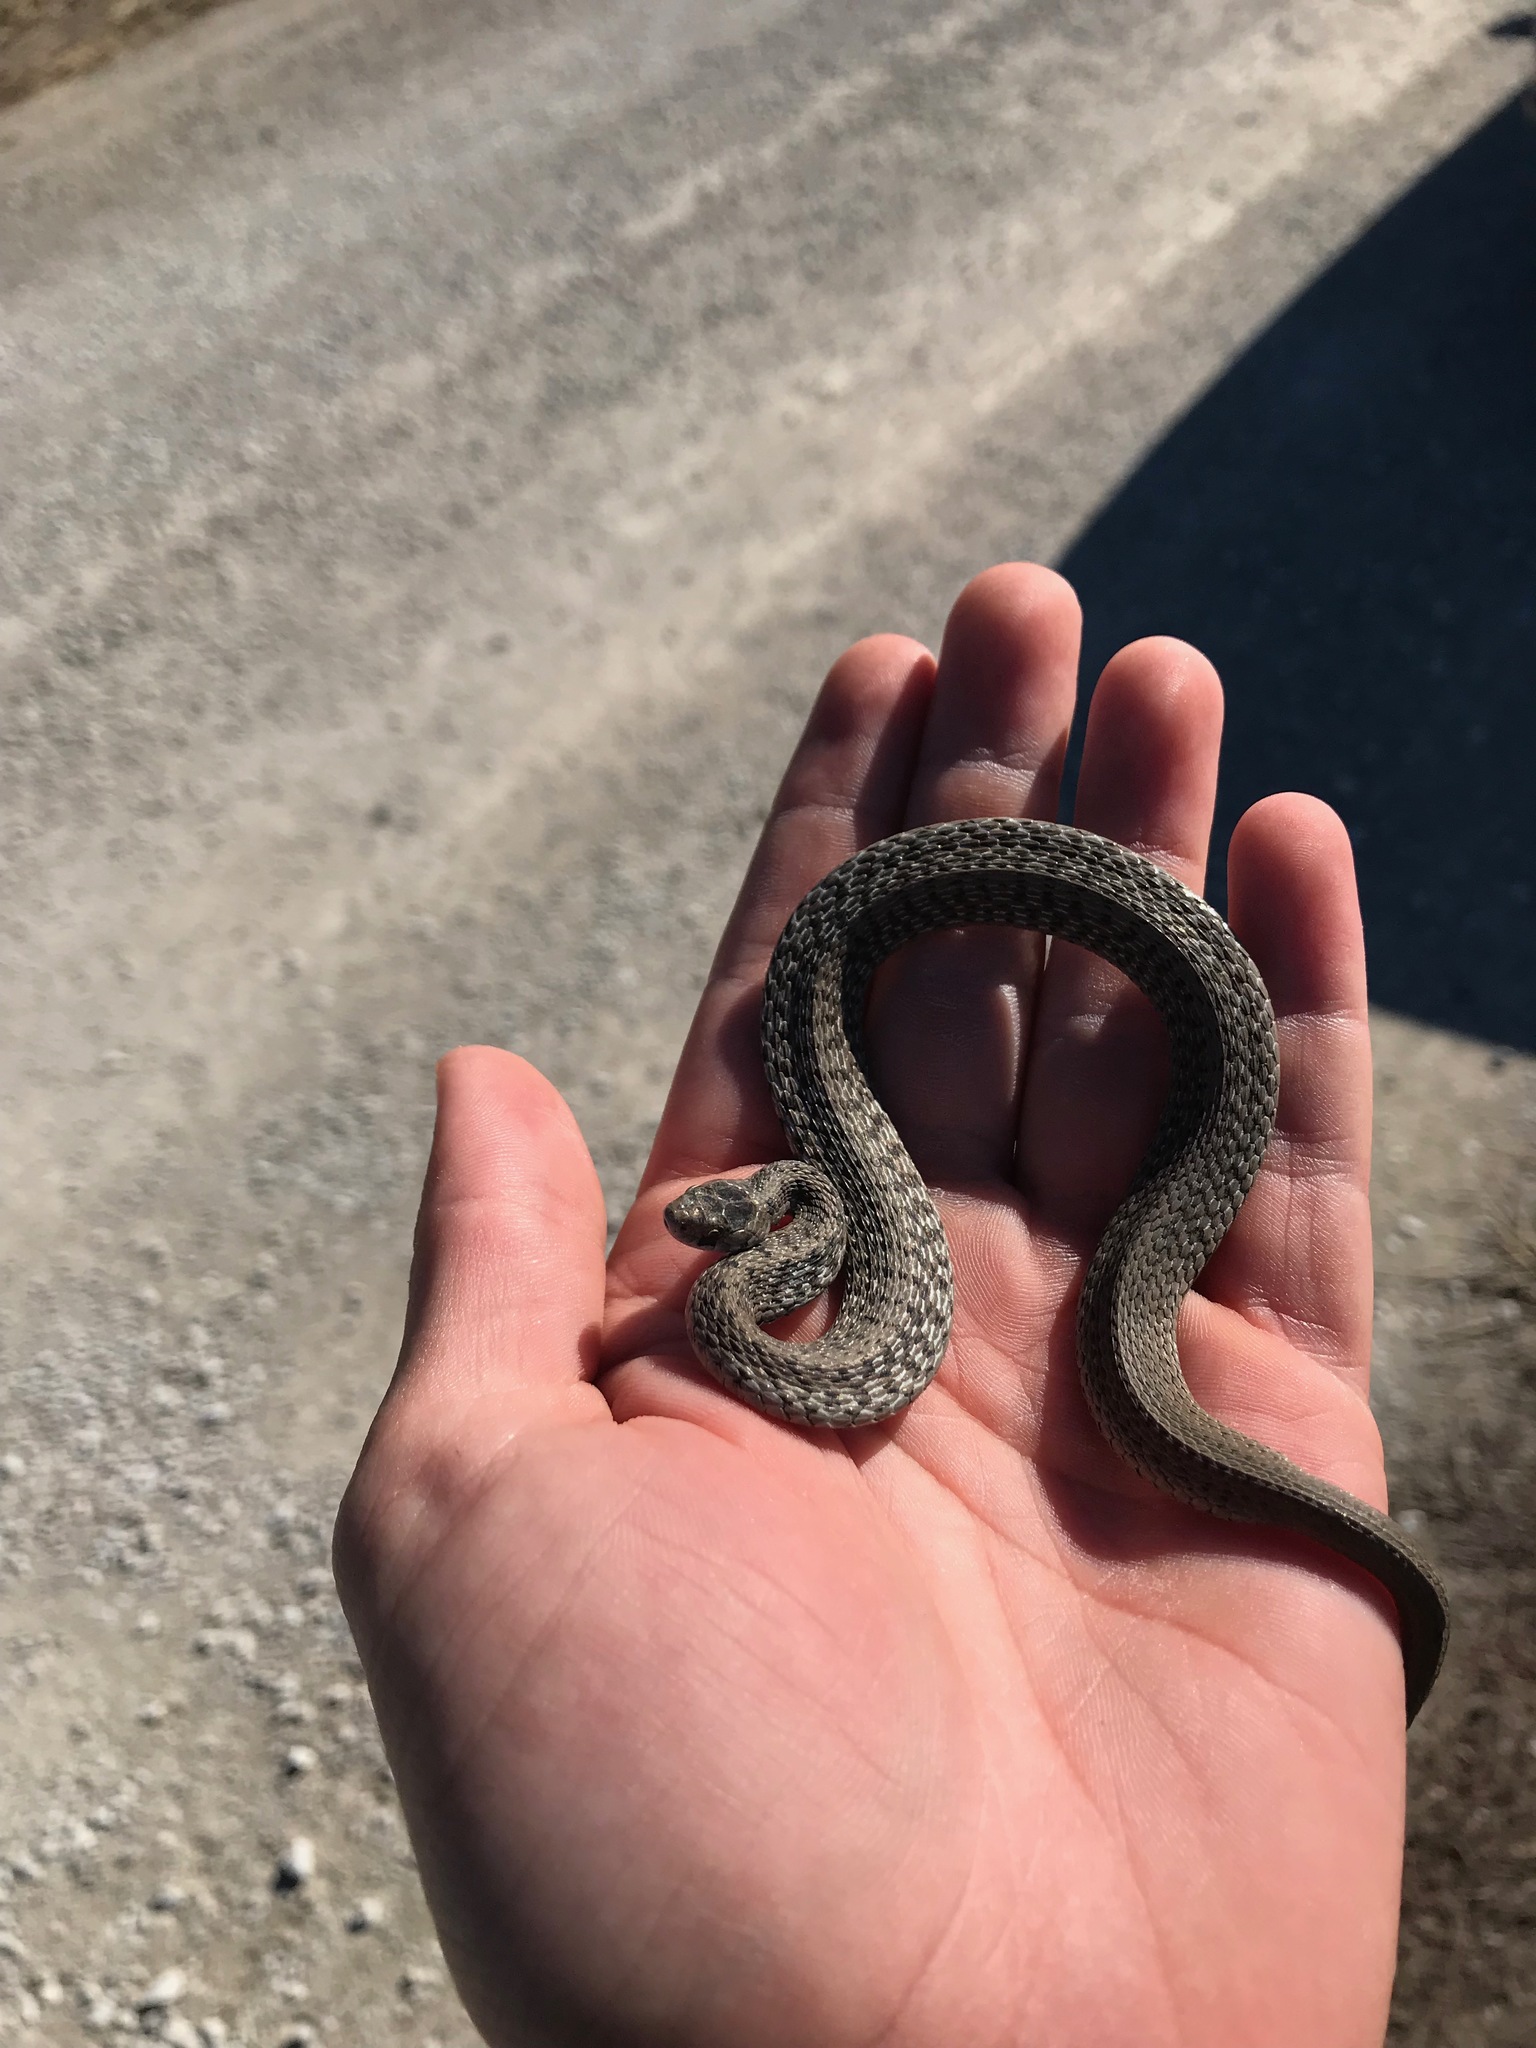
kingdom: Animalia
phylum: Chordata
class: Squamata
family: Colubridae
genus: Storeria
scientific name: Storeria dekayi
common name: (dekay’s) brown snake
